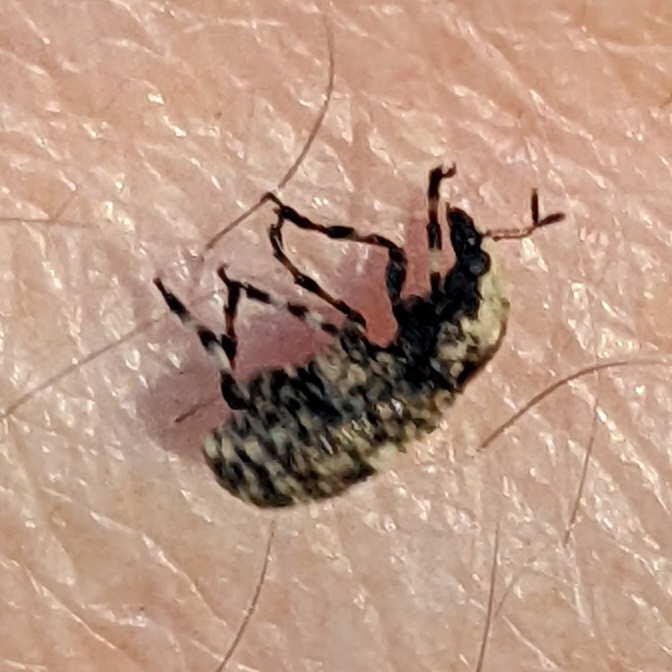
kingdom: Animalia
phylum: Arthropoda
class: Insecta
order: Coleoptera
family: Anthribidae
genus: Euparius
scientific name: Euparius marmoreus
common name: Marbled fungus weevil
